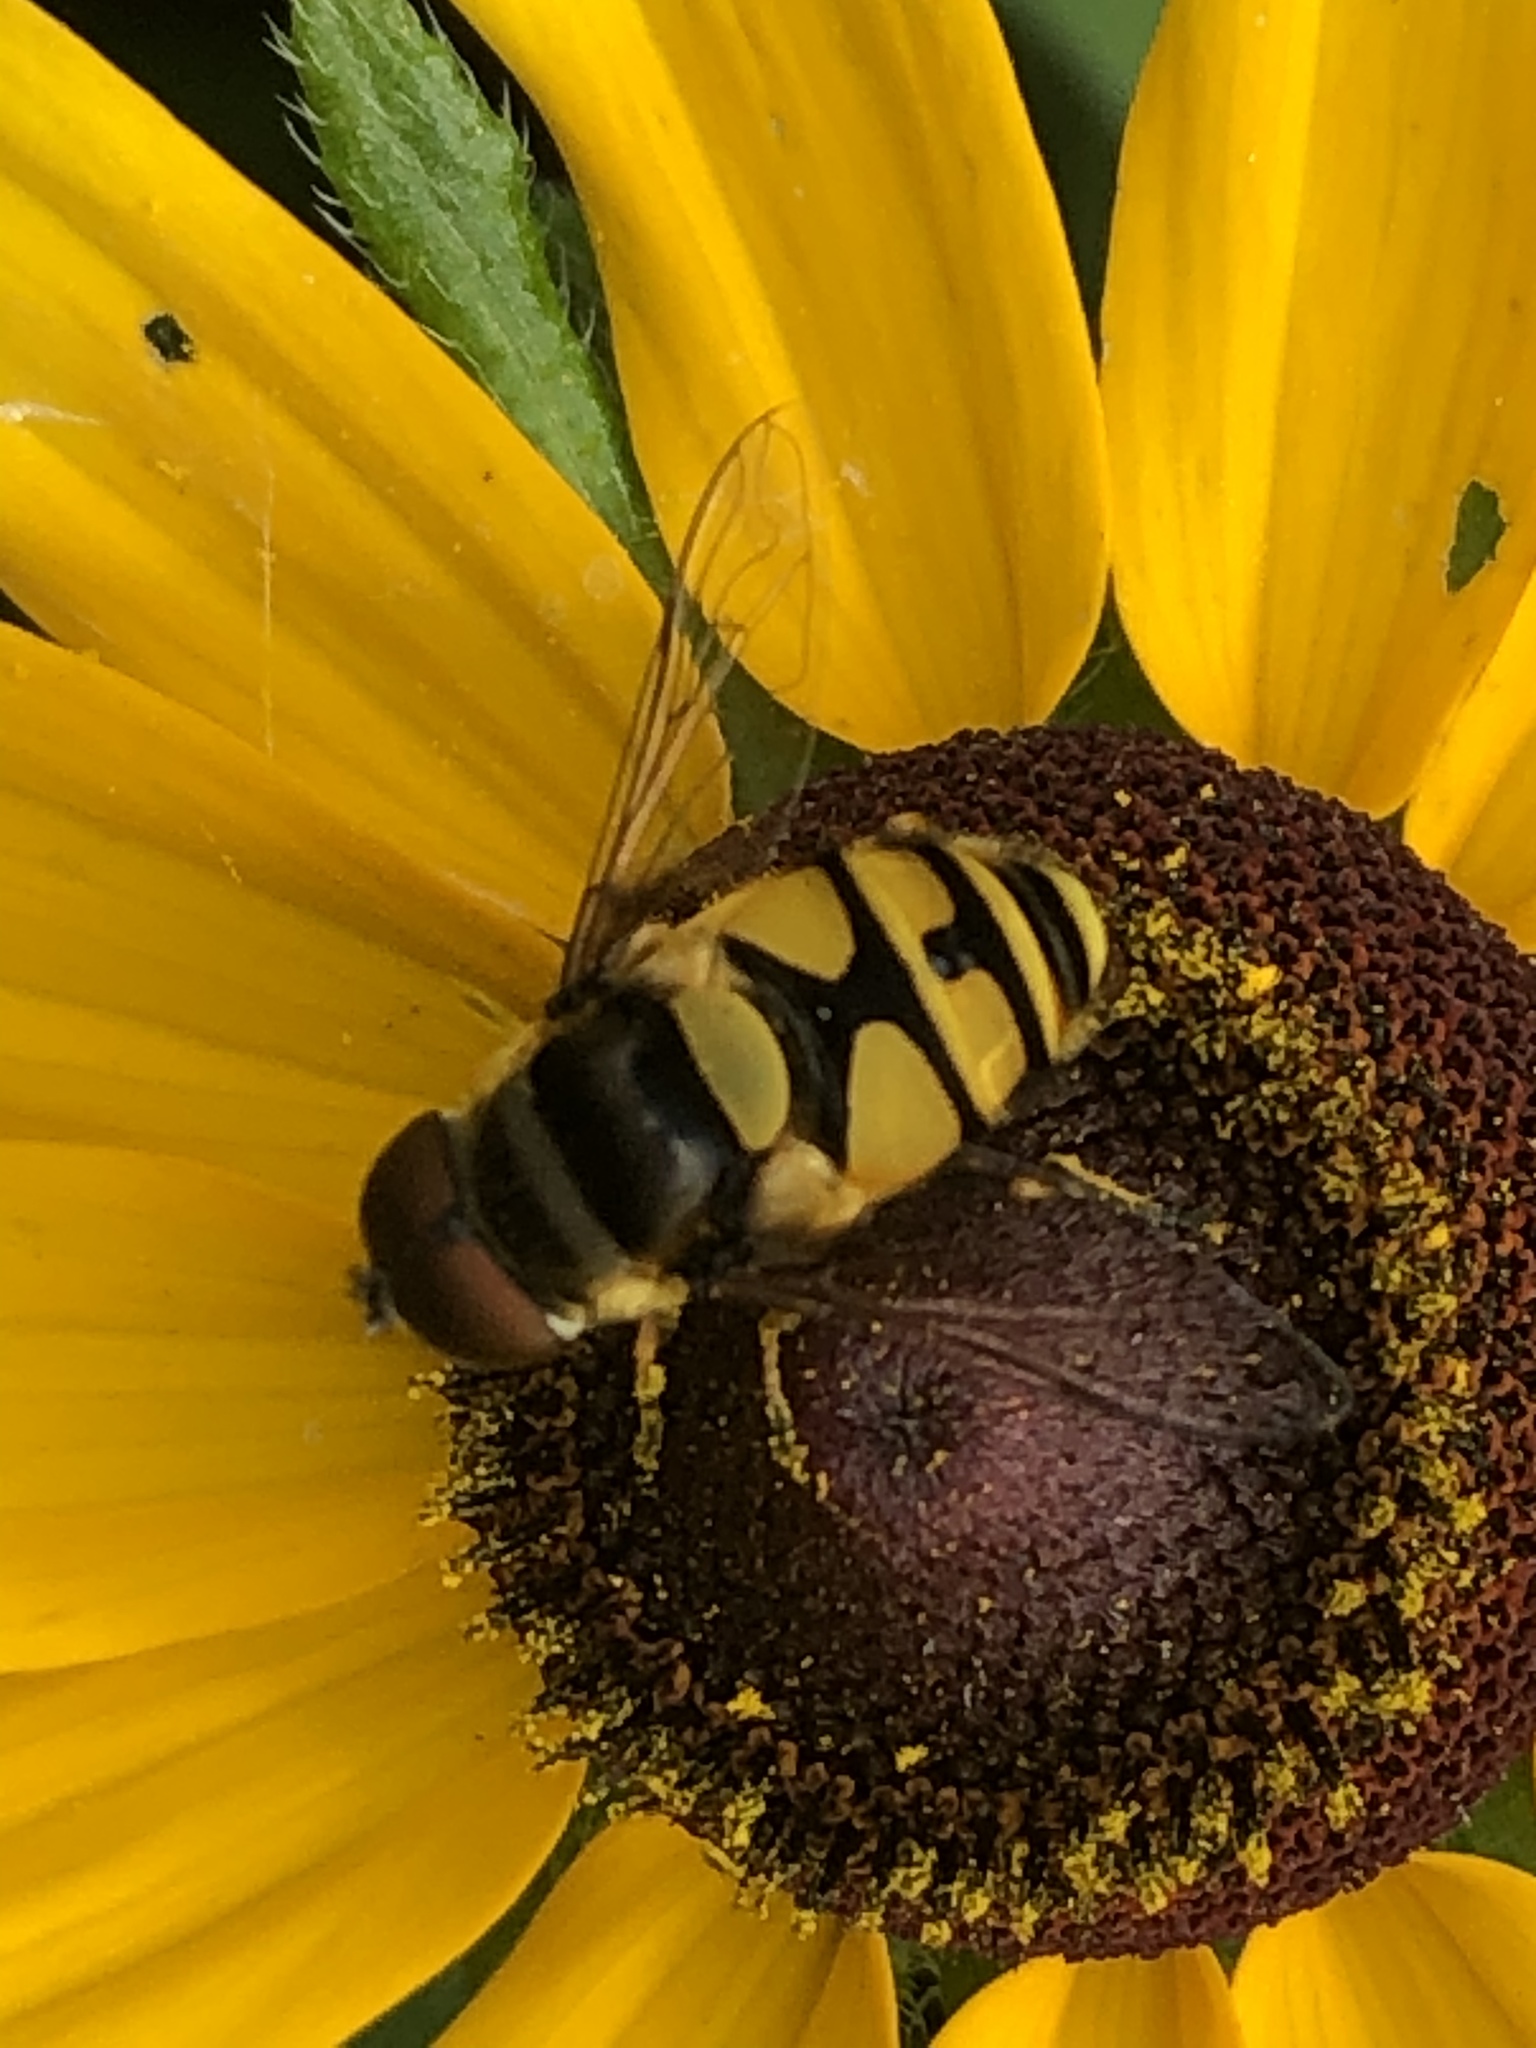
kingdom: Animalia
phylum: Arthropoda
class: Insecta
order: Diptera
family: Syrphidae
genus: Eristalis
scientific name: Eristalis transversa
